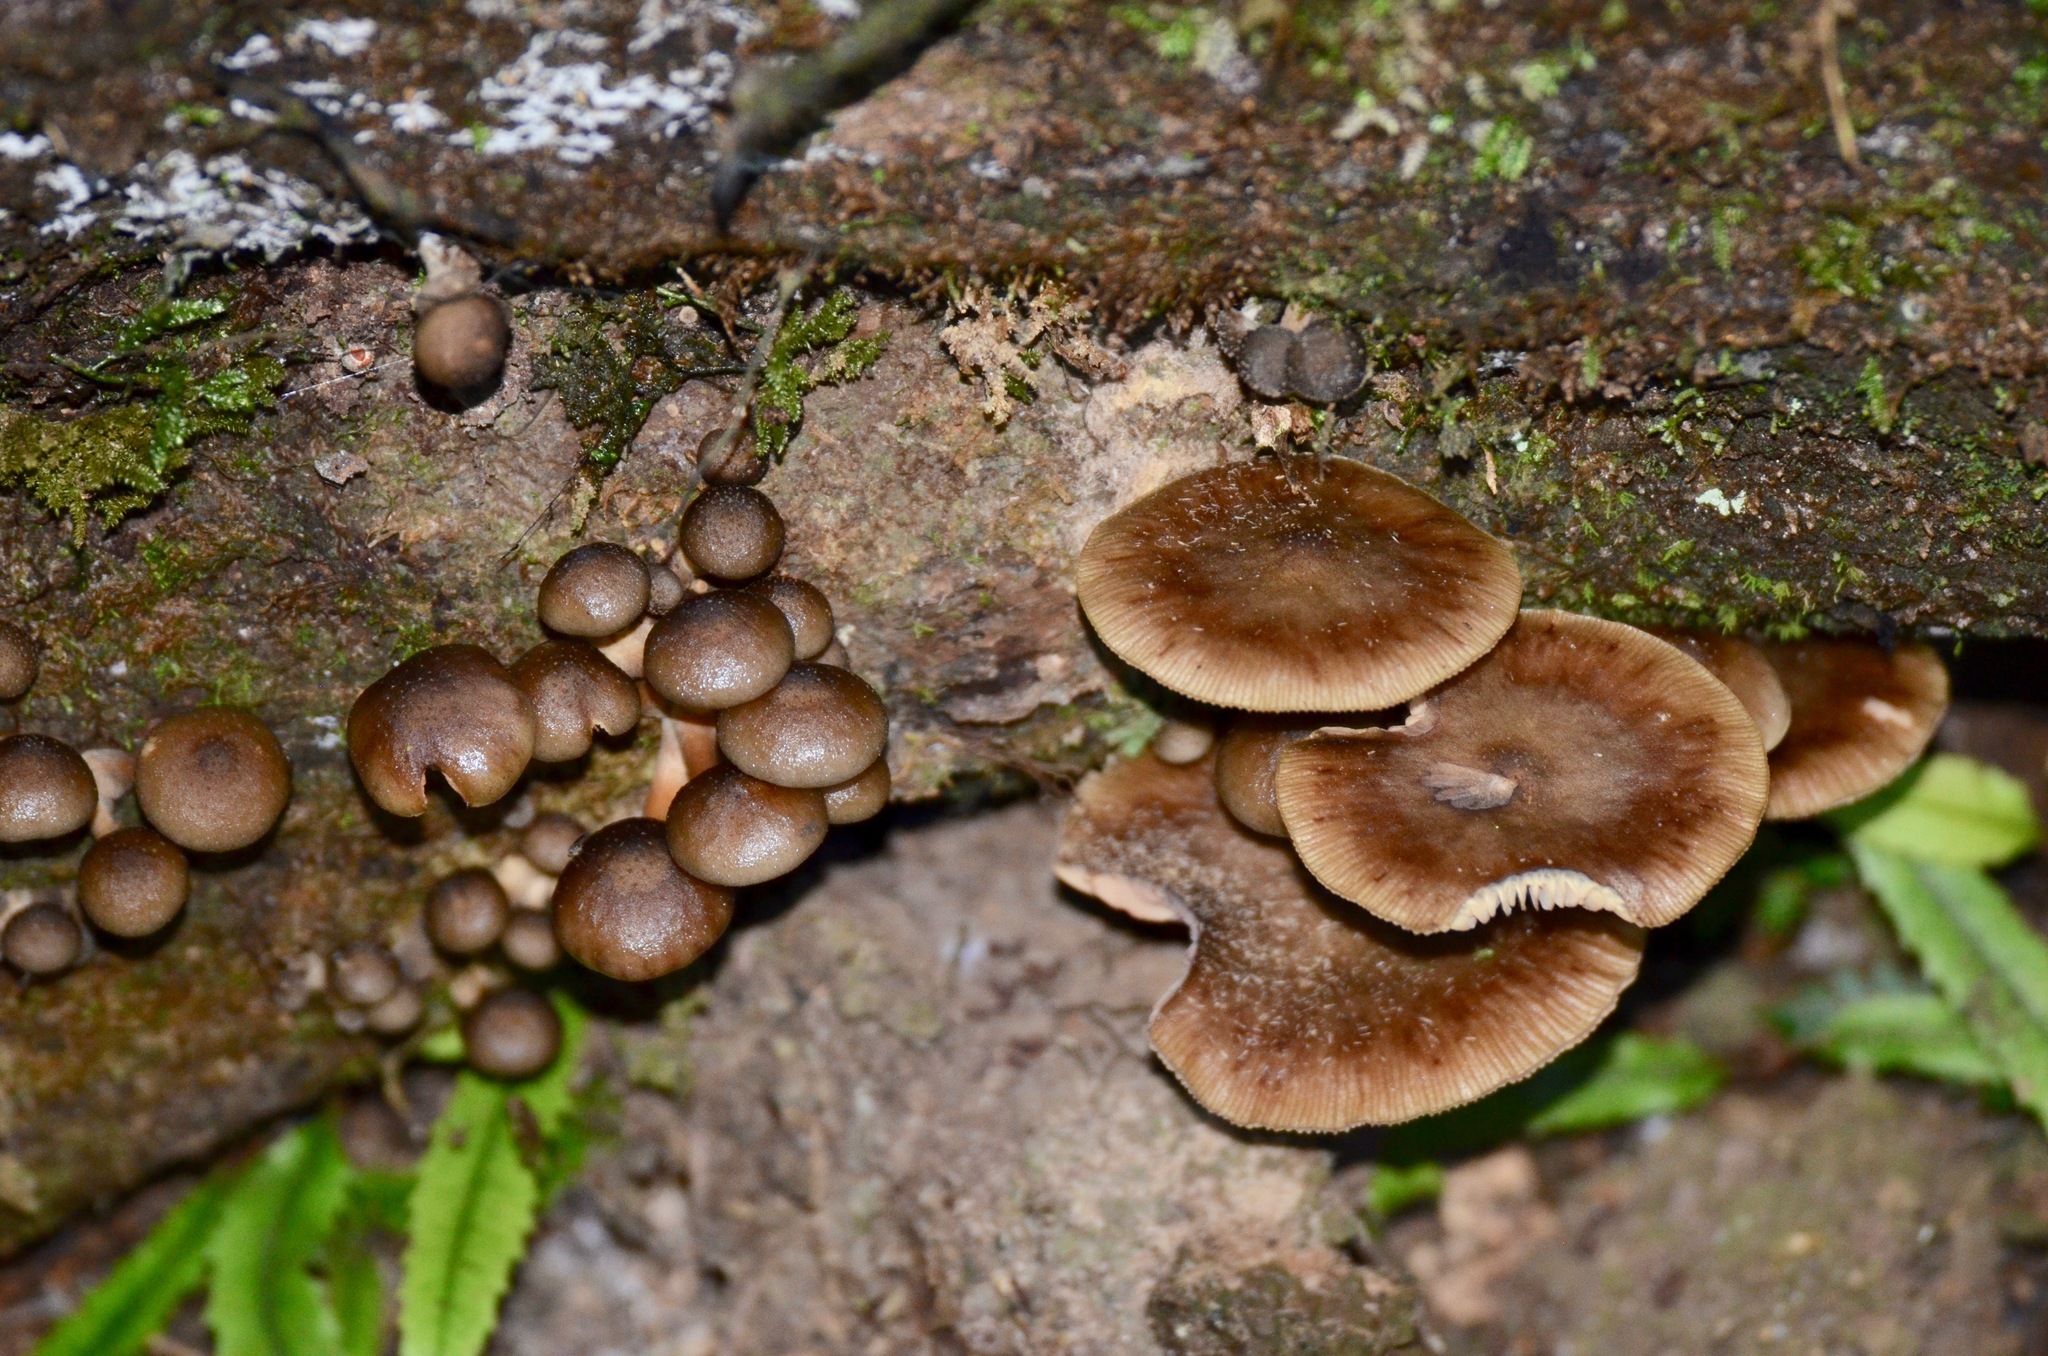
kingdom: Fungi
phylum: Basidiomycota
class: Agaricomycetes
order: Agaricales
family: Physalacriaceae
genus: Armillaria
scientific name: Armillaria novae-zelandiae
